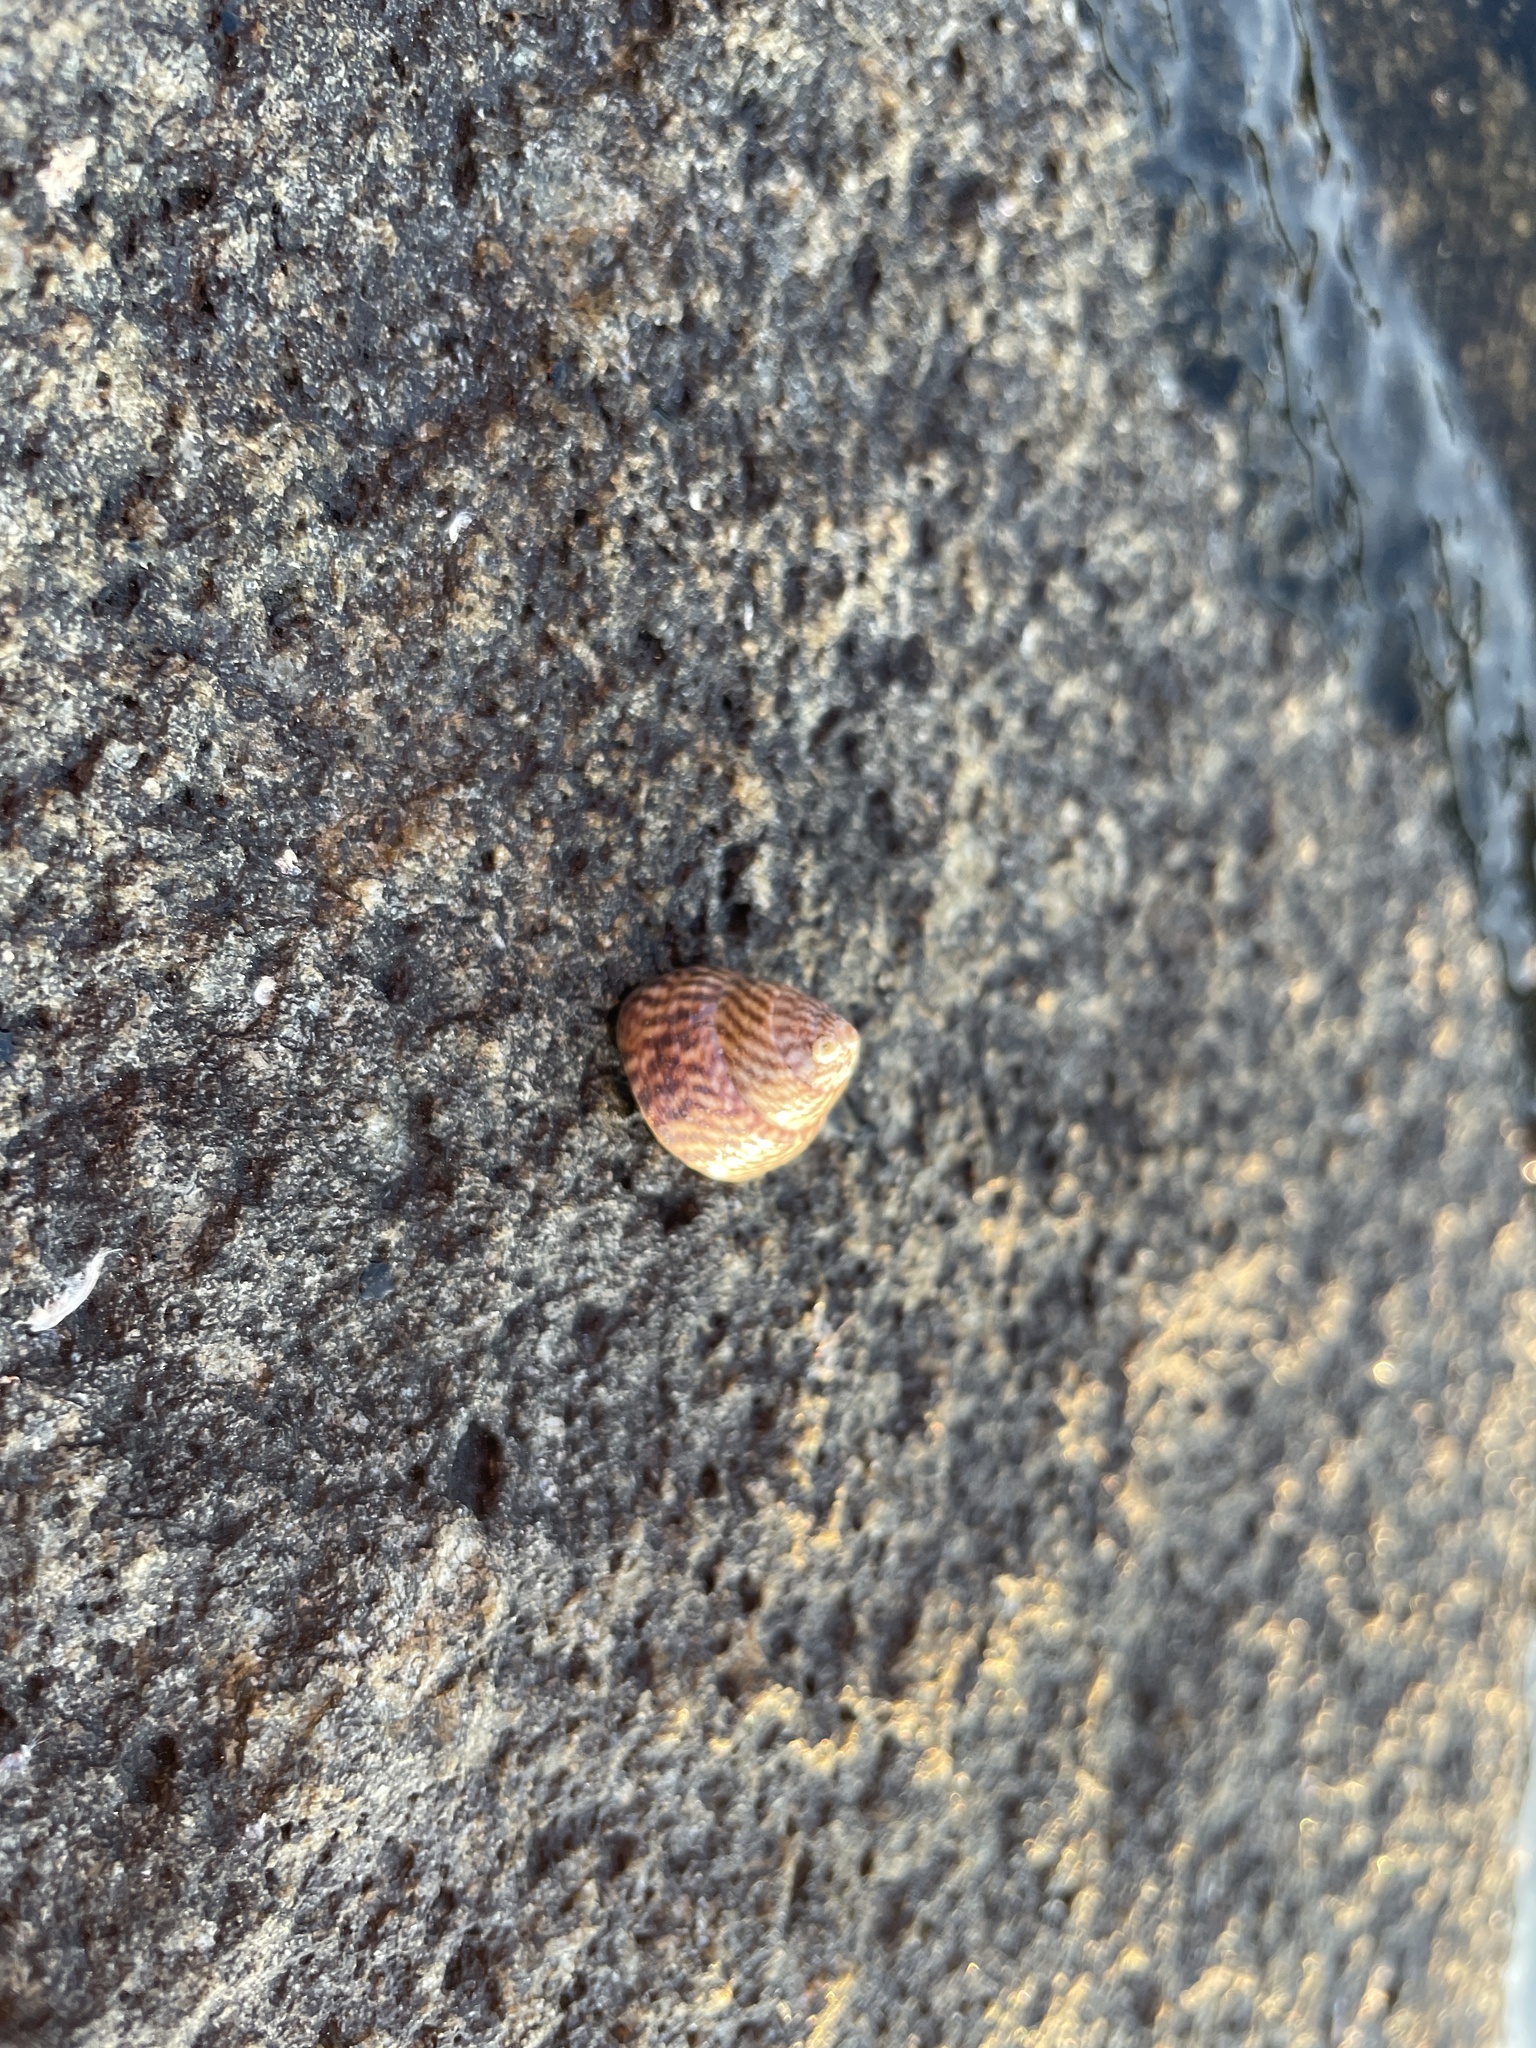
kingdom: Animalia
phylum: Mollusca
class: Gastropoda
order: Trochida
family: Trochidae
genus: Steromphala
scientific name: Steromphala cineraria
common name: Grey top shell
